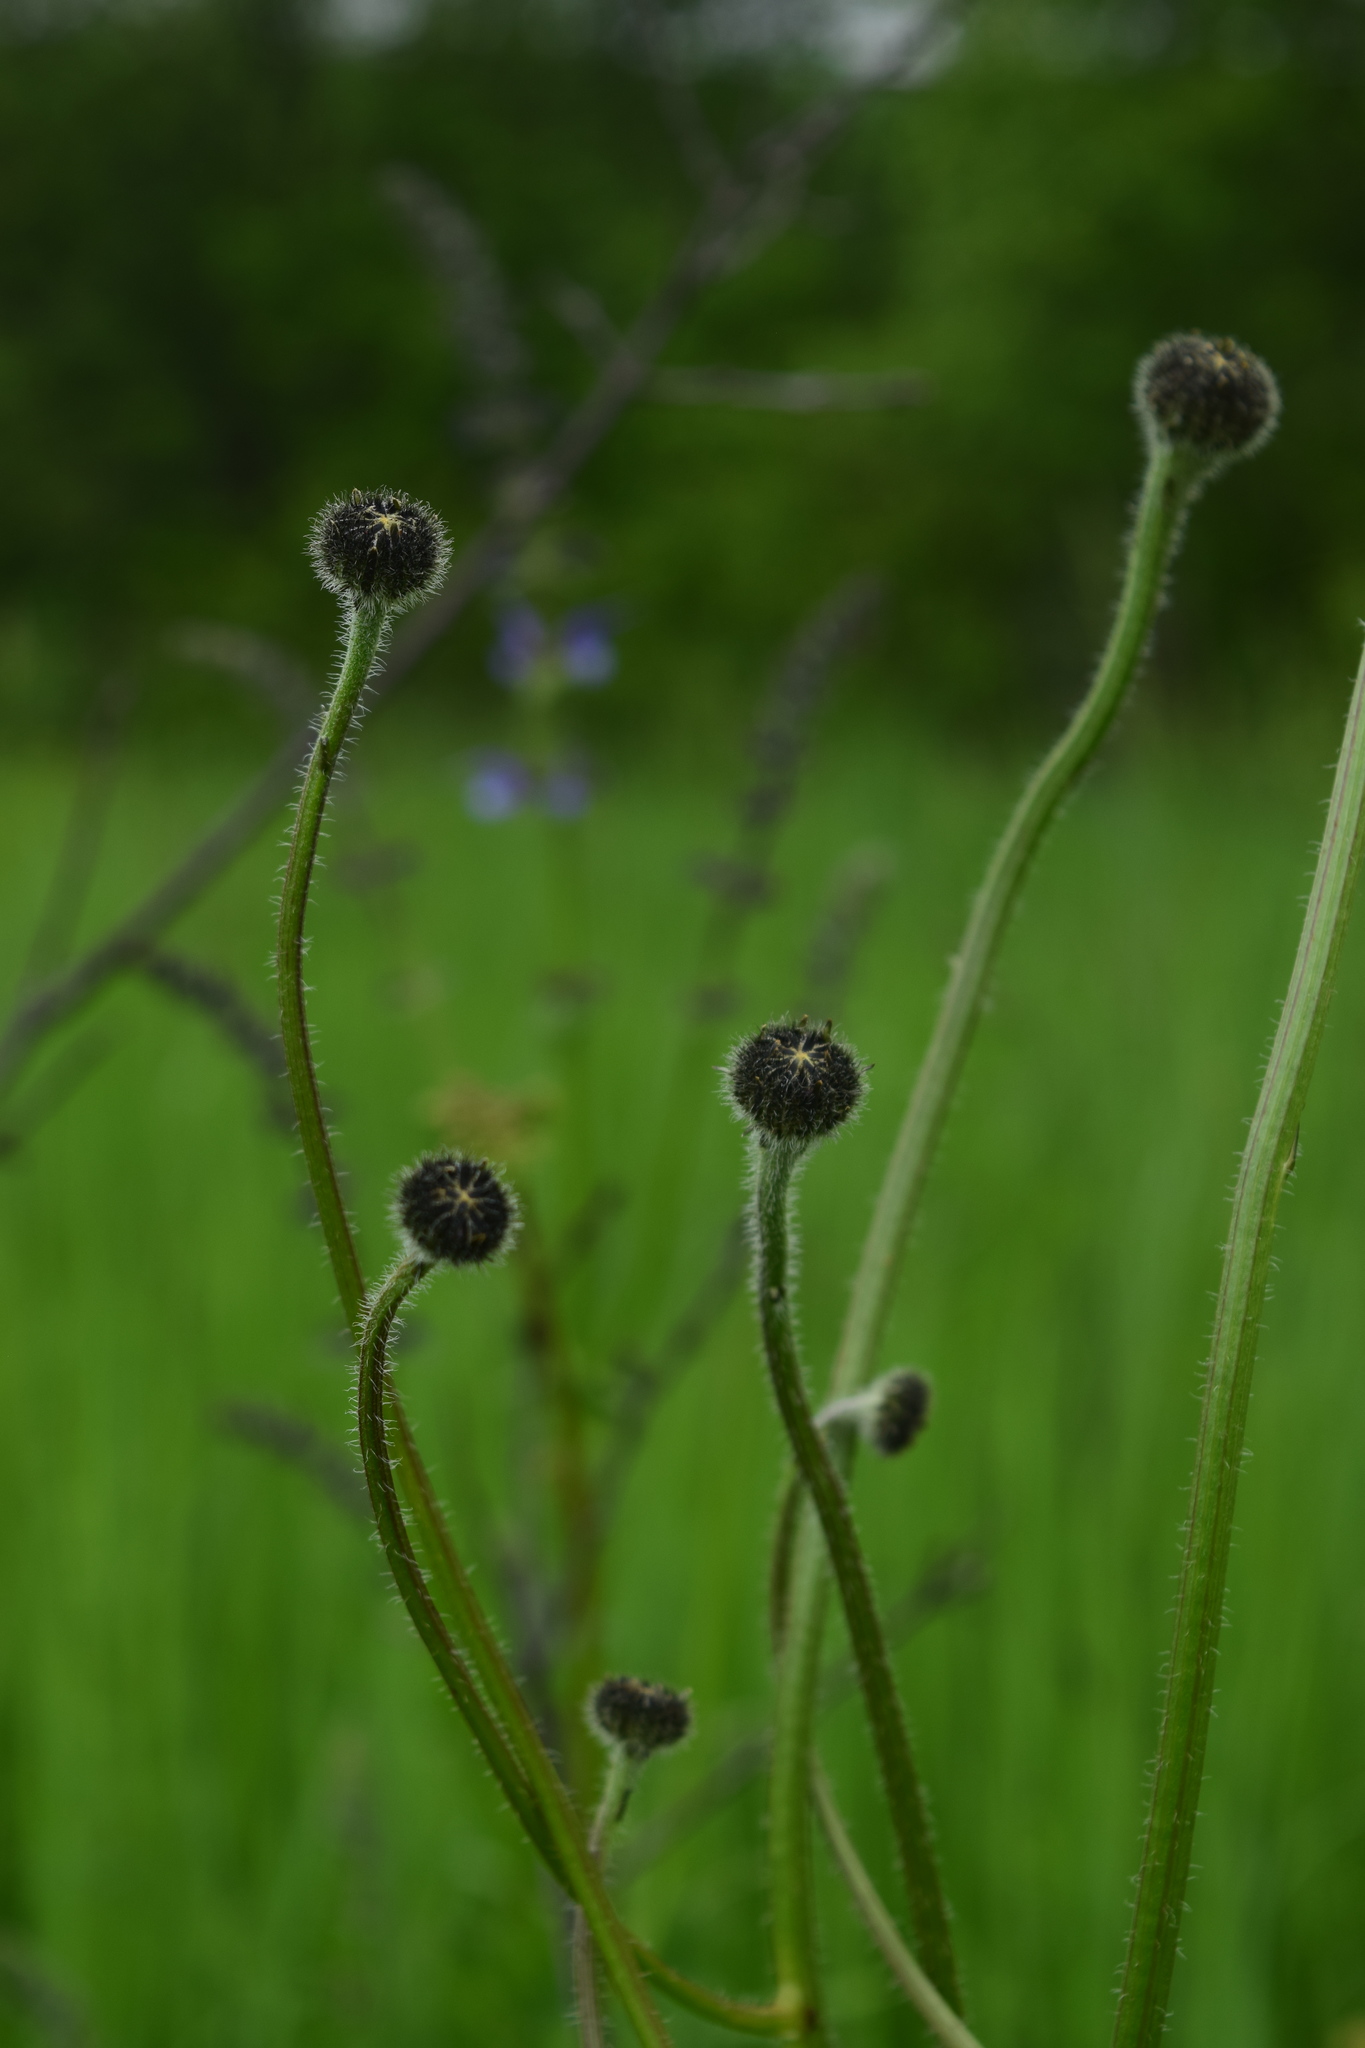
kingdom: Plantae
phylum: Tracheophyta
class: Magnoliopsida
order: Asterales
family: Asteraceae
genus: Trommsdorffia
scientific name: Trommsdorffia maculata
